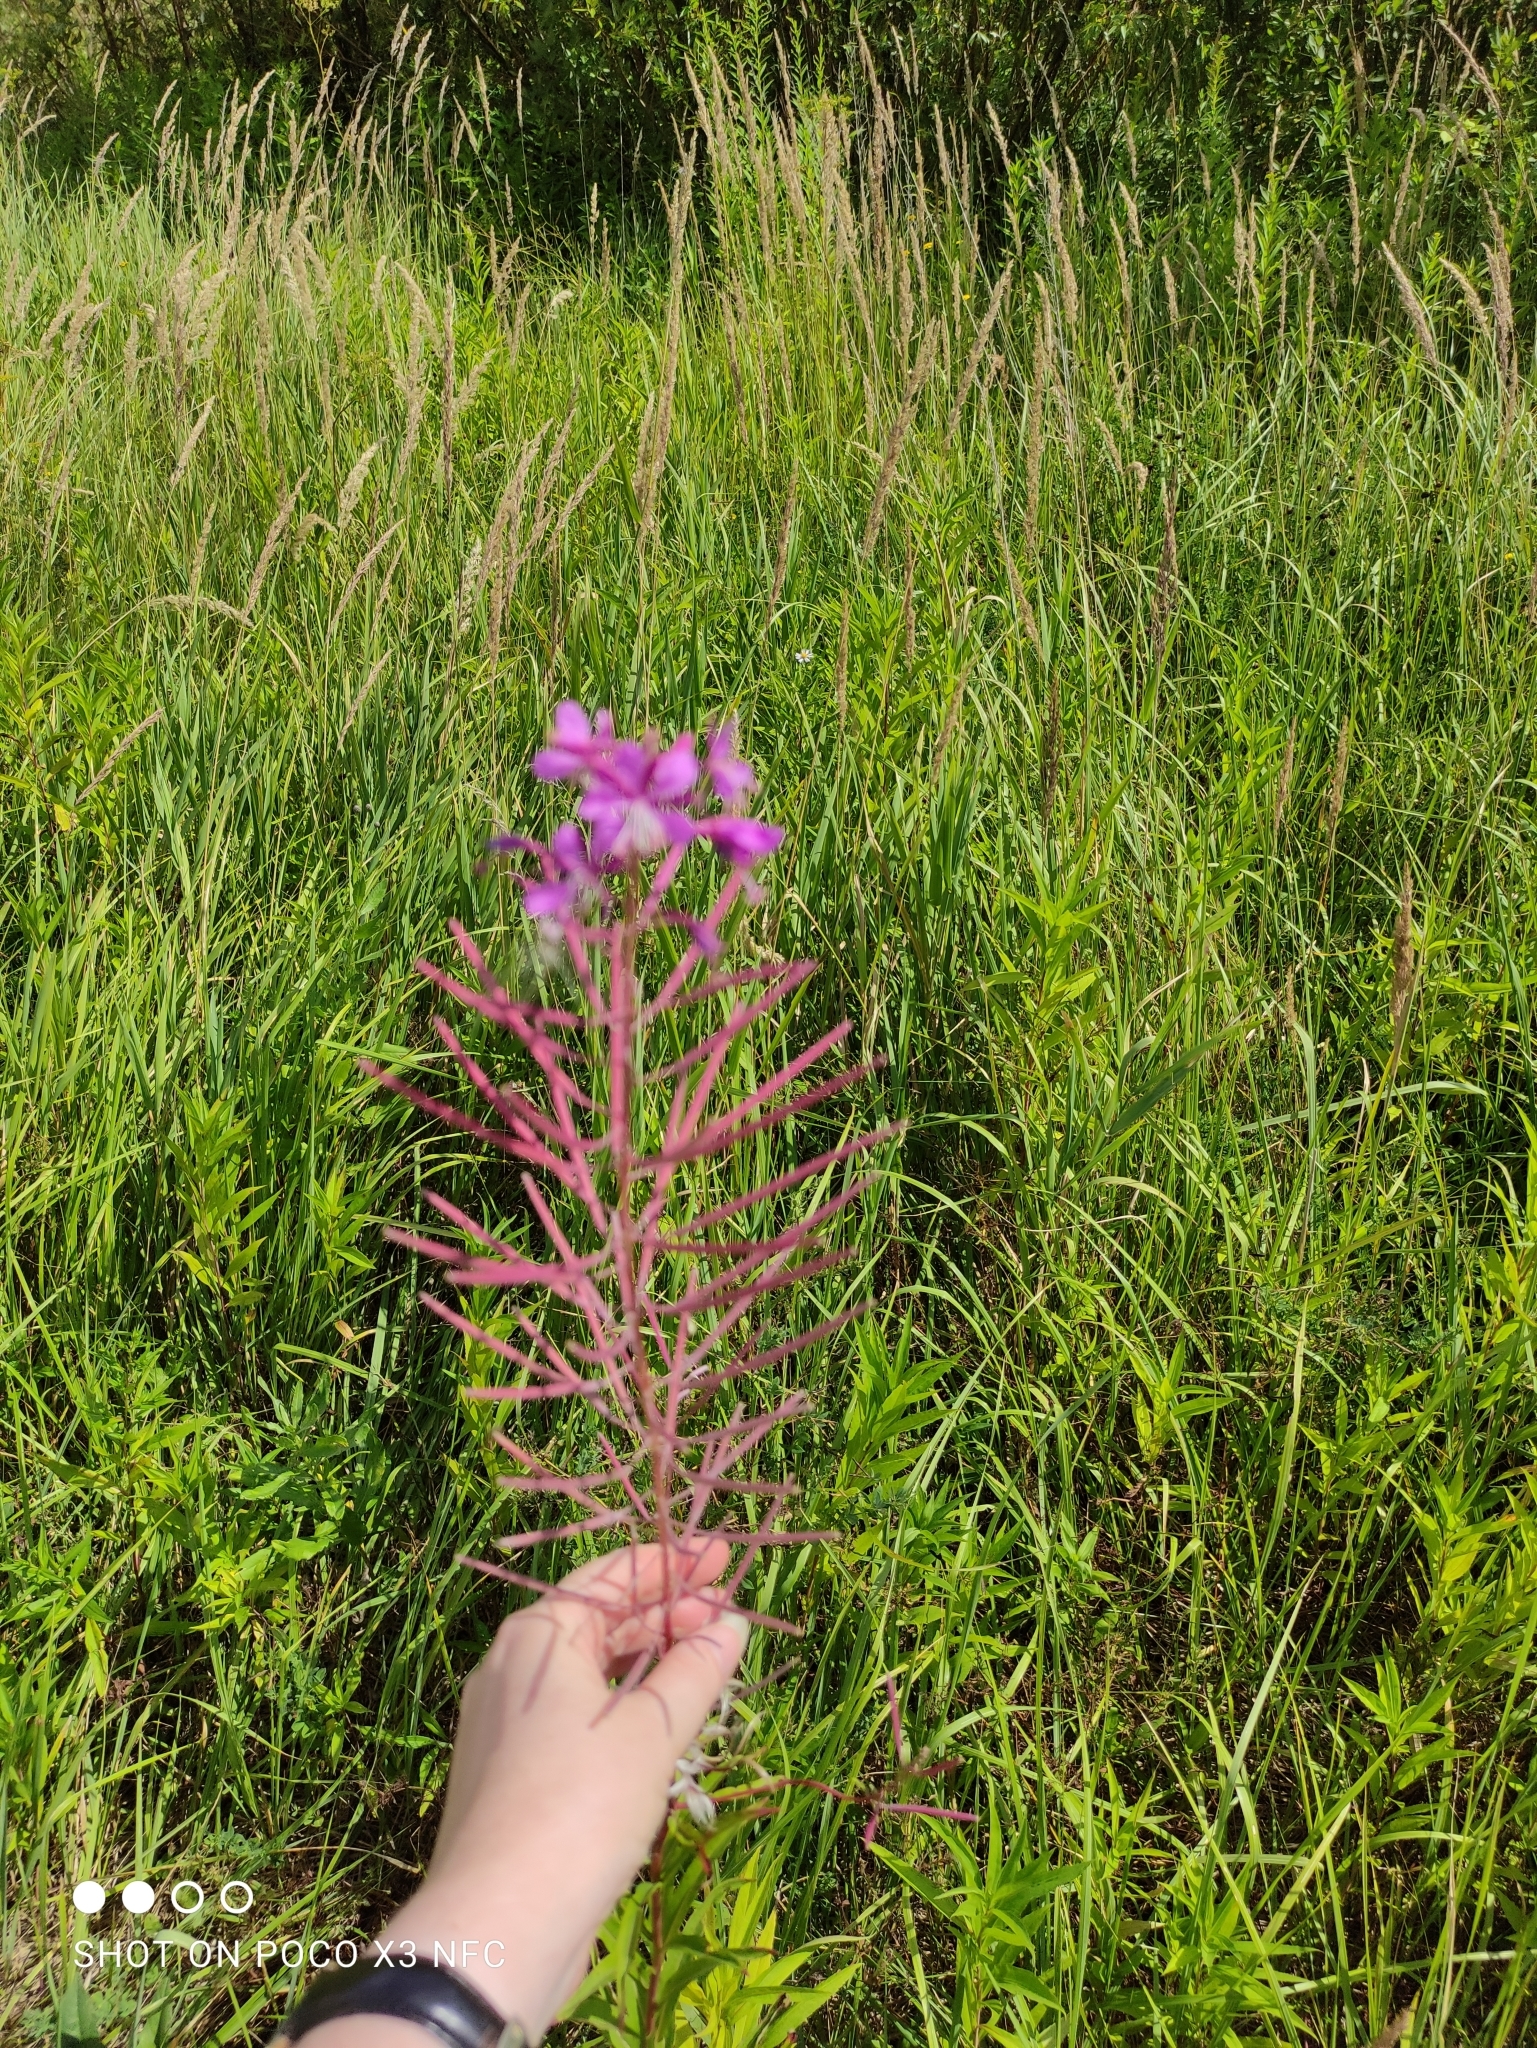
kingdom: Plantae
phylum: Tracheophyta
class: Magnoliopsida
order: Myrtales
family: Onagraceae
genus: Chamaenerion
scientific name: Chamaenerion angustifolium
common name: Fireweed
